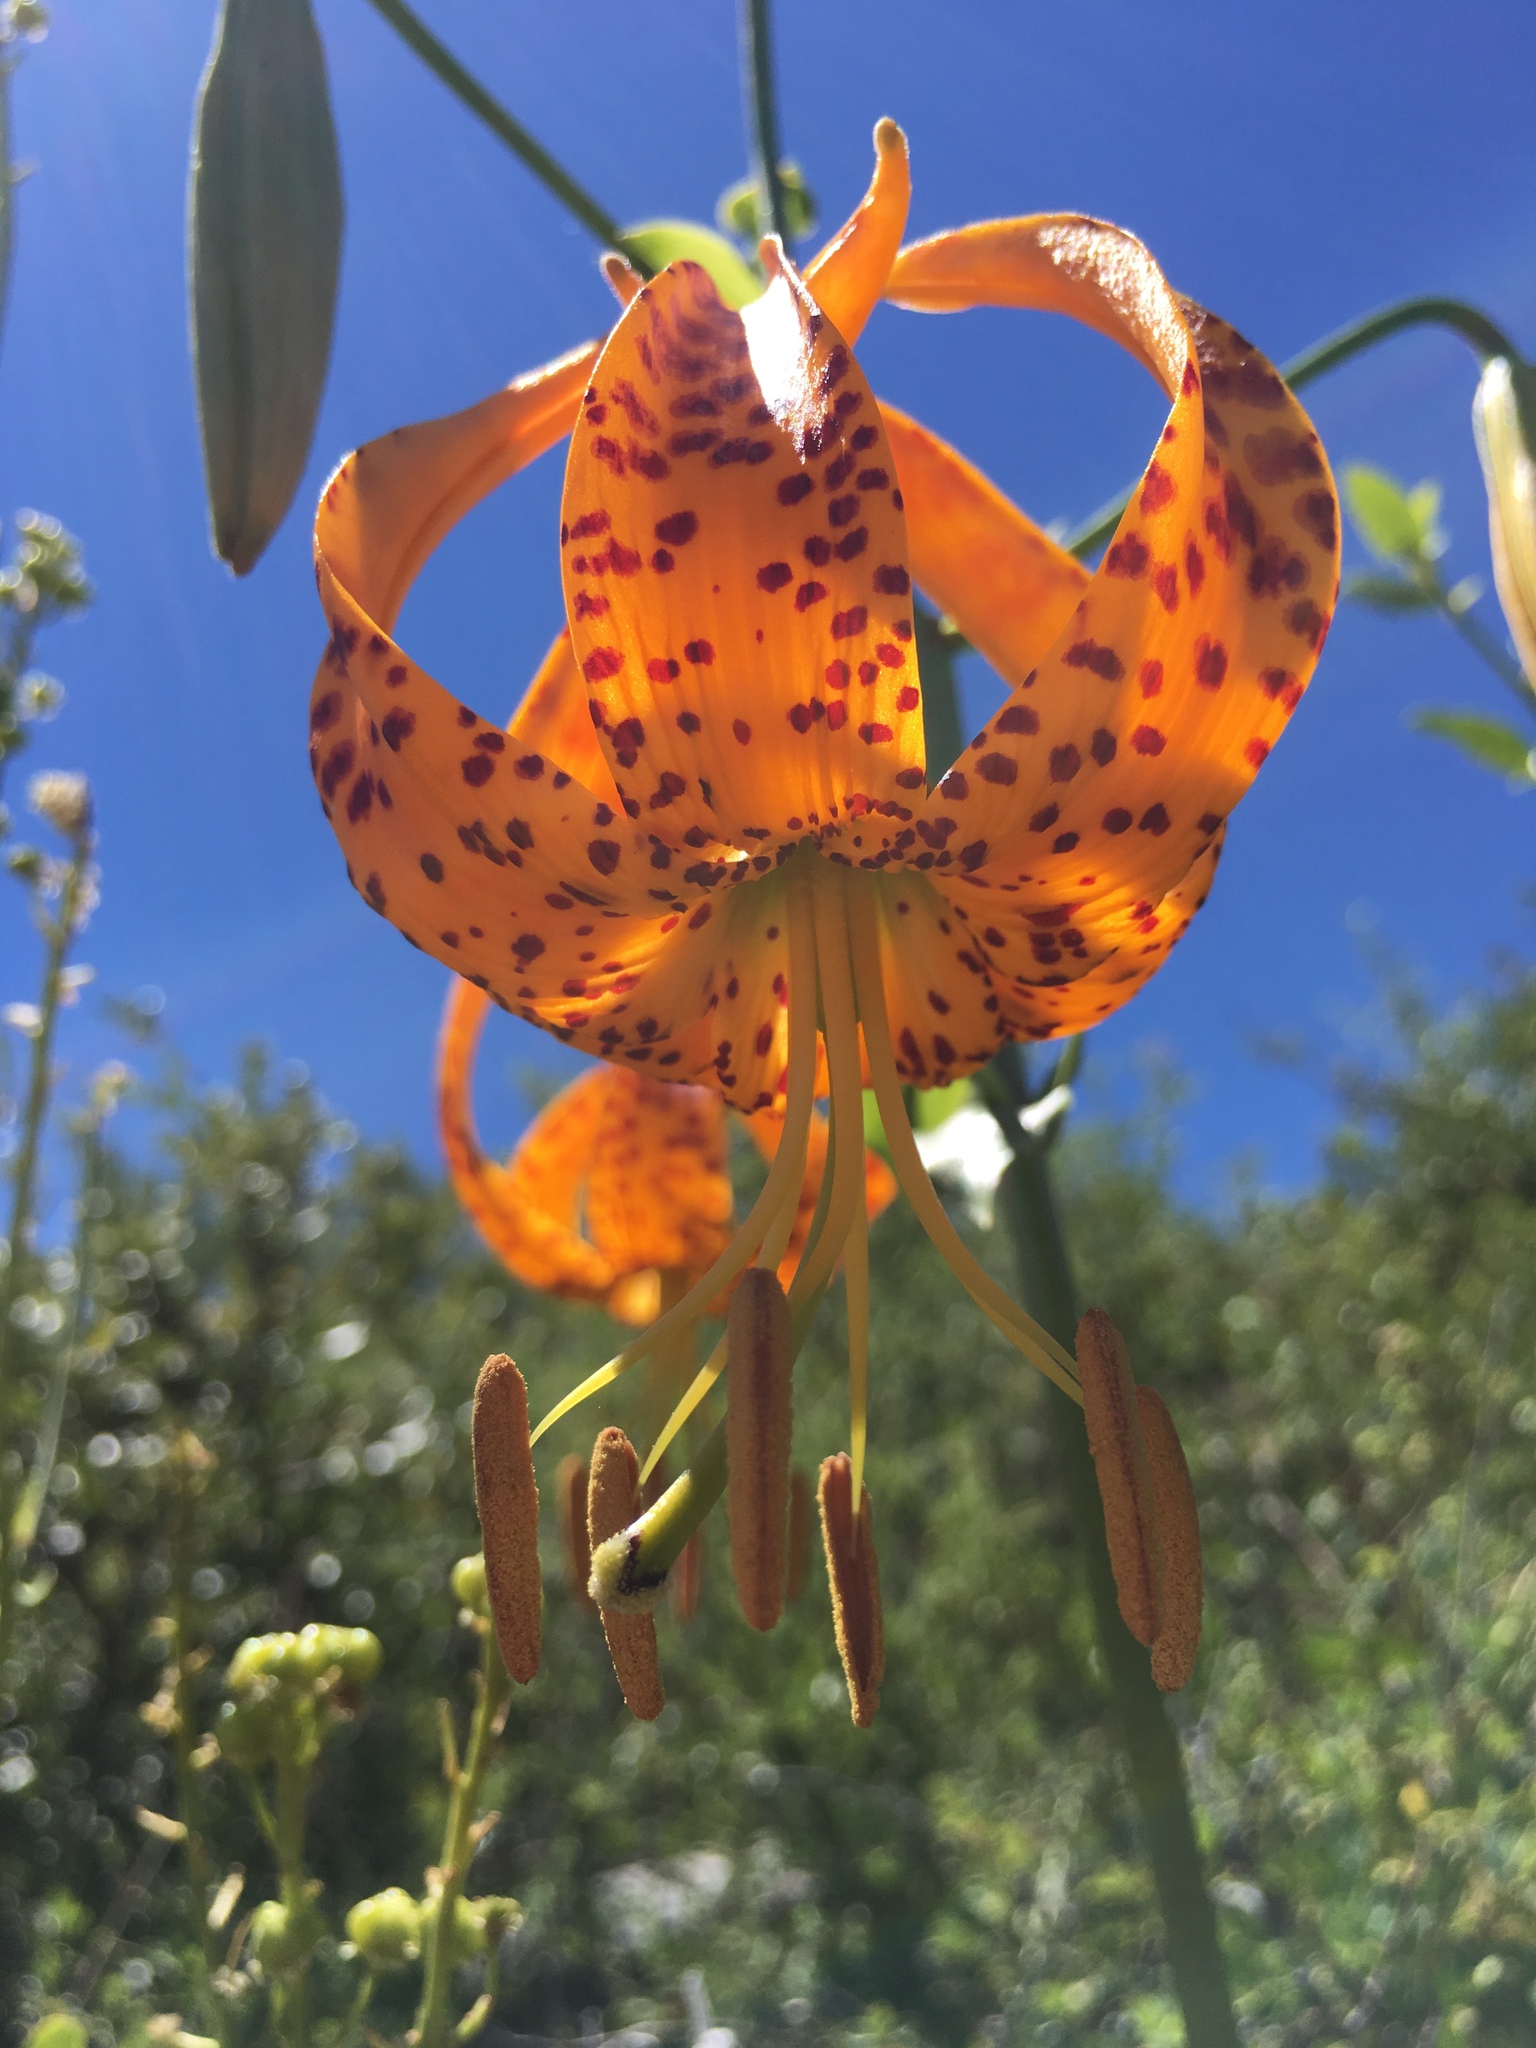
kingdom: Plantae
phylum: Tracheophyta
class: Liliopsida
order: Liliales
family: Liliaceae
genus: Lilium
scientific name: Lilium humboldtii
